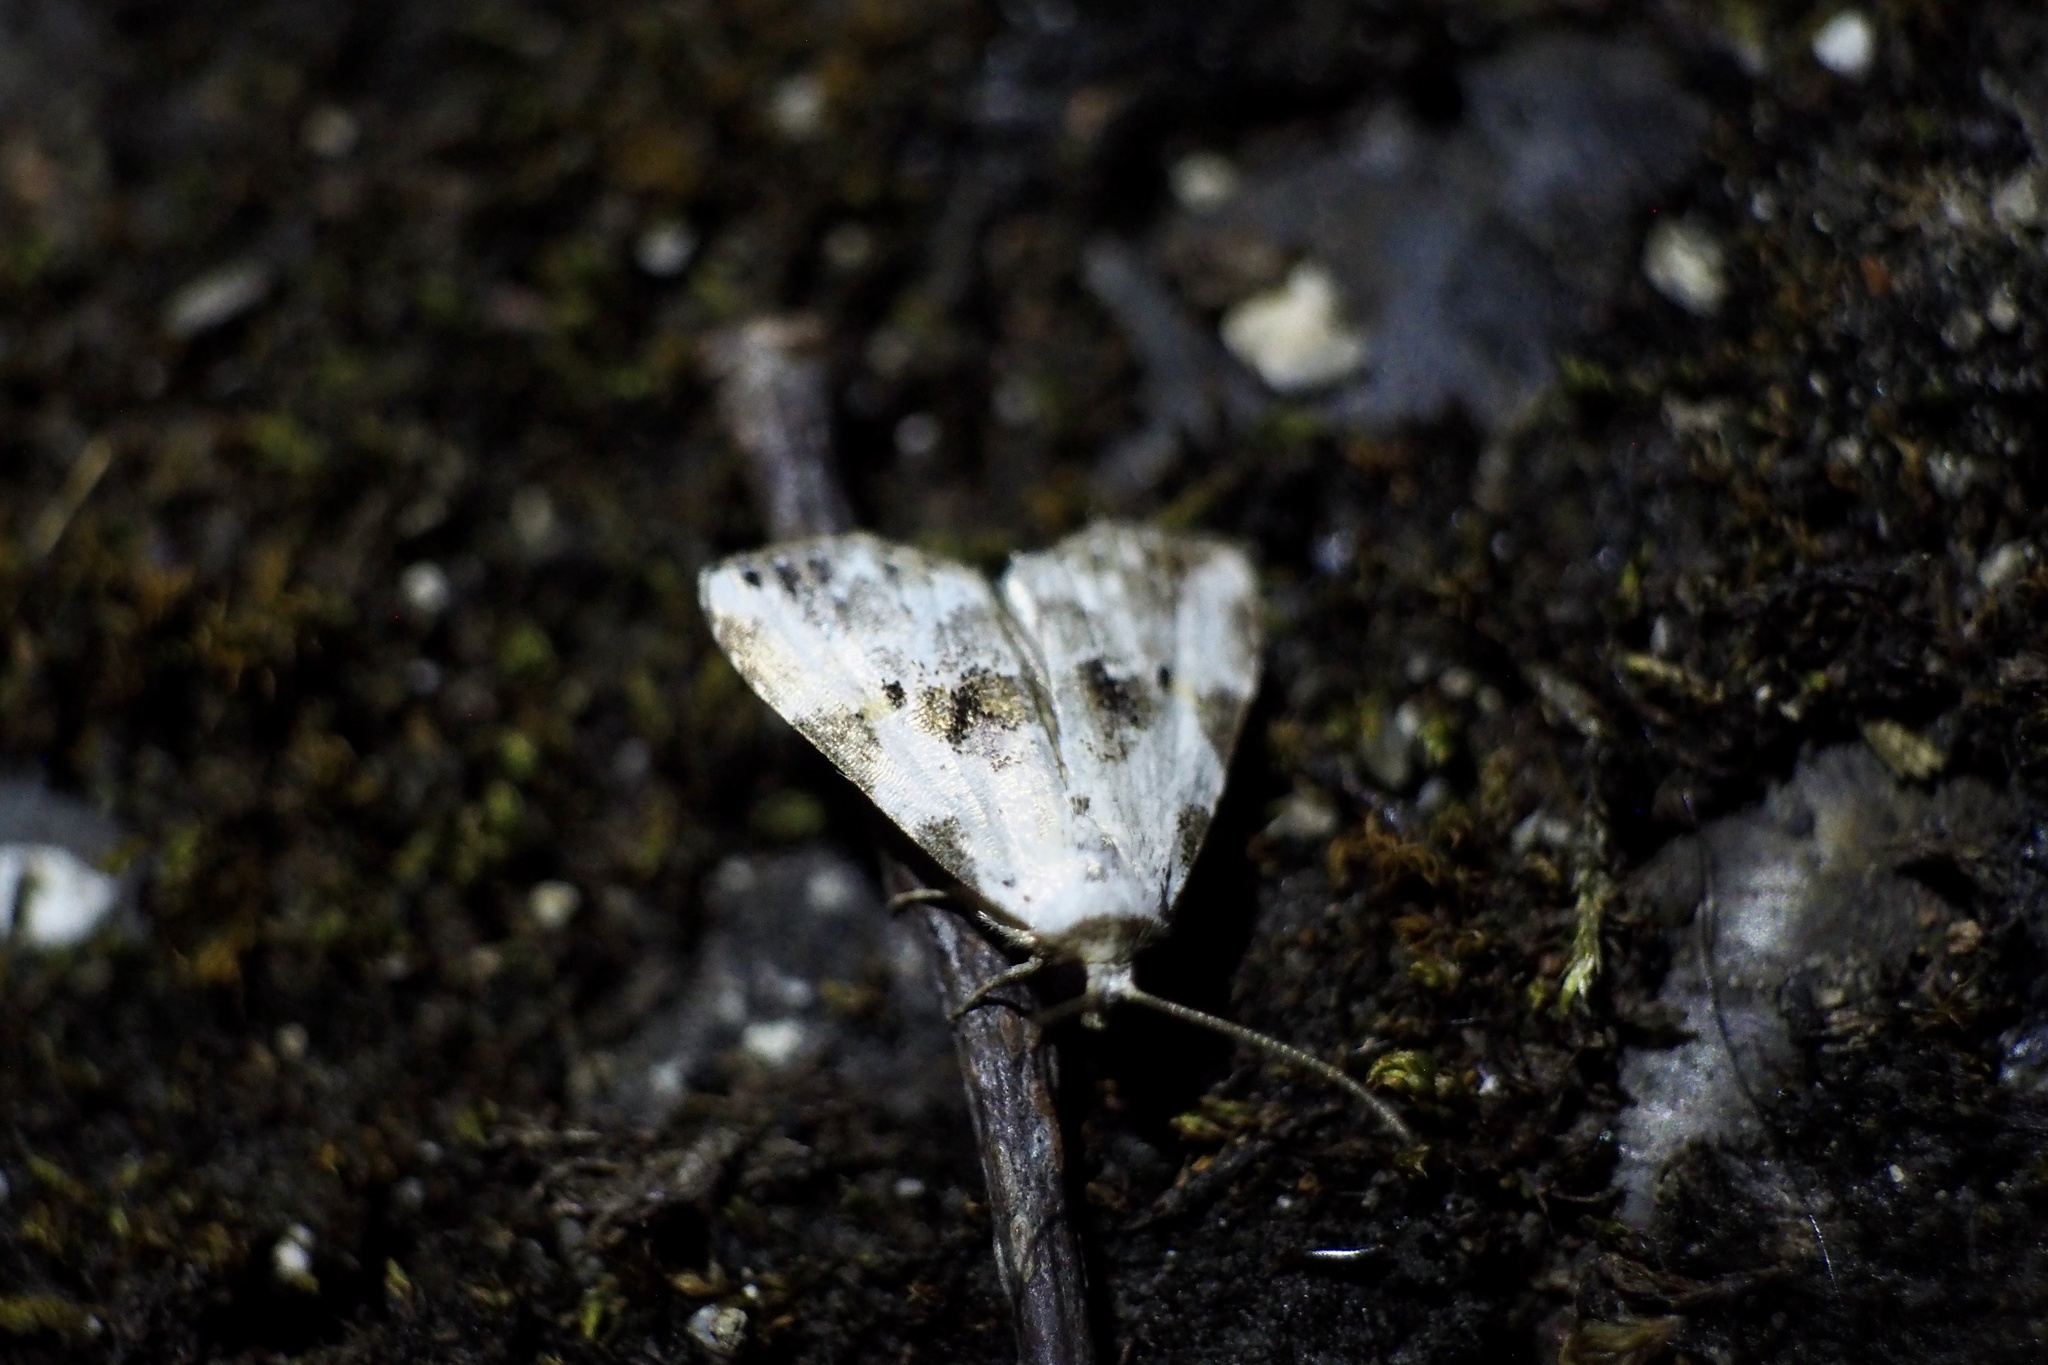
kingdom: Animalia
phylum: Arthropoda
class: Insecta
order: Lepidoptera
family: Erebidae
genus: Chorsia
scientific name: Chorsia noloides
